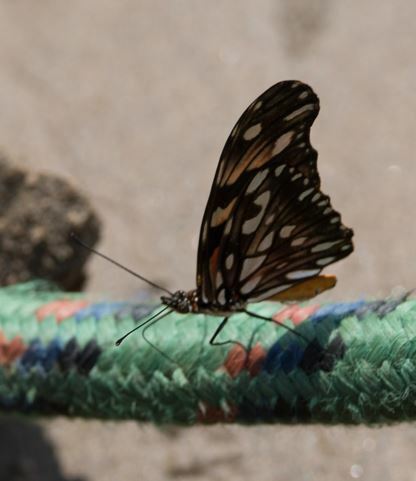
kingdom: Animalia
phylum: Arthropoda
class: Insecta
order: Lepidoptera
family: Nymphalidae
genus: Dione
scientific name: Dione juno
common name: Juno silverspot
